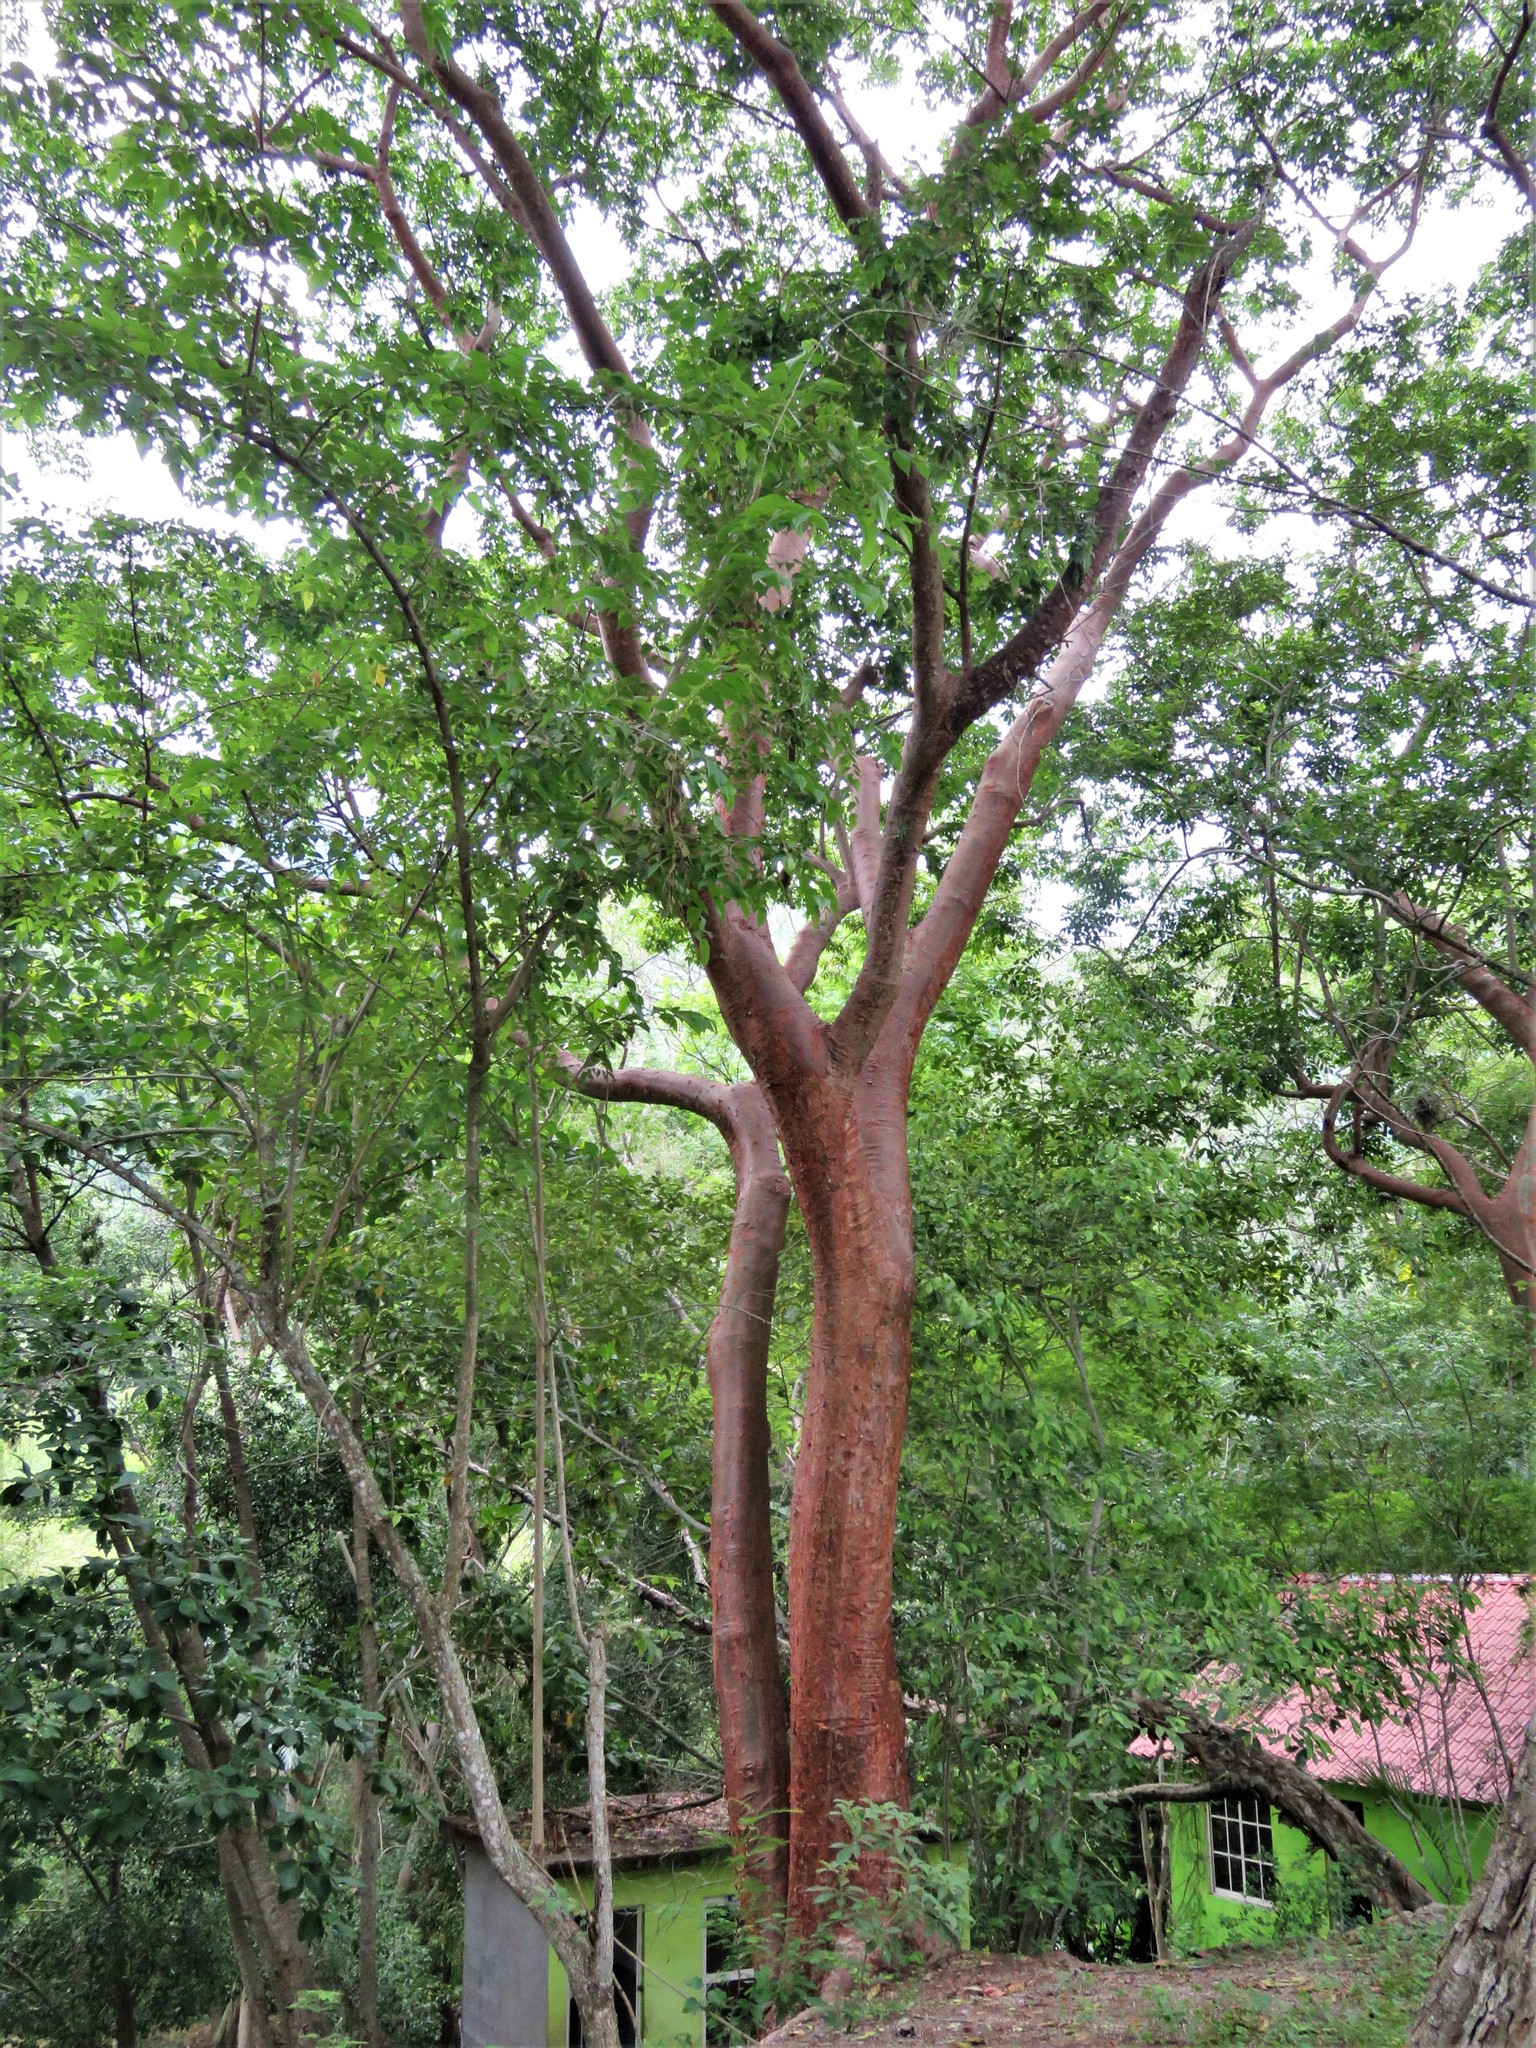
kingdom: Plantae
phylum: Tracheophyta
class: Magnoliopsida
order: Sapindales
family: Burseraceae
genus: Bursera
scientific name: Bursera simaruba
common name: Turpentine tree
